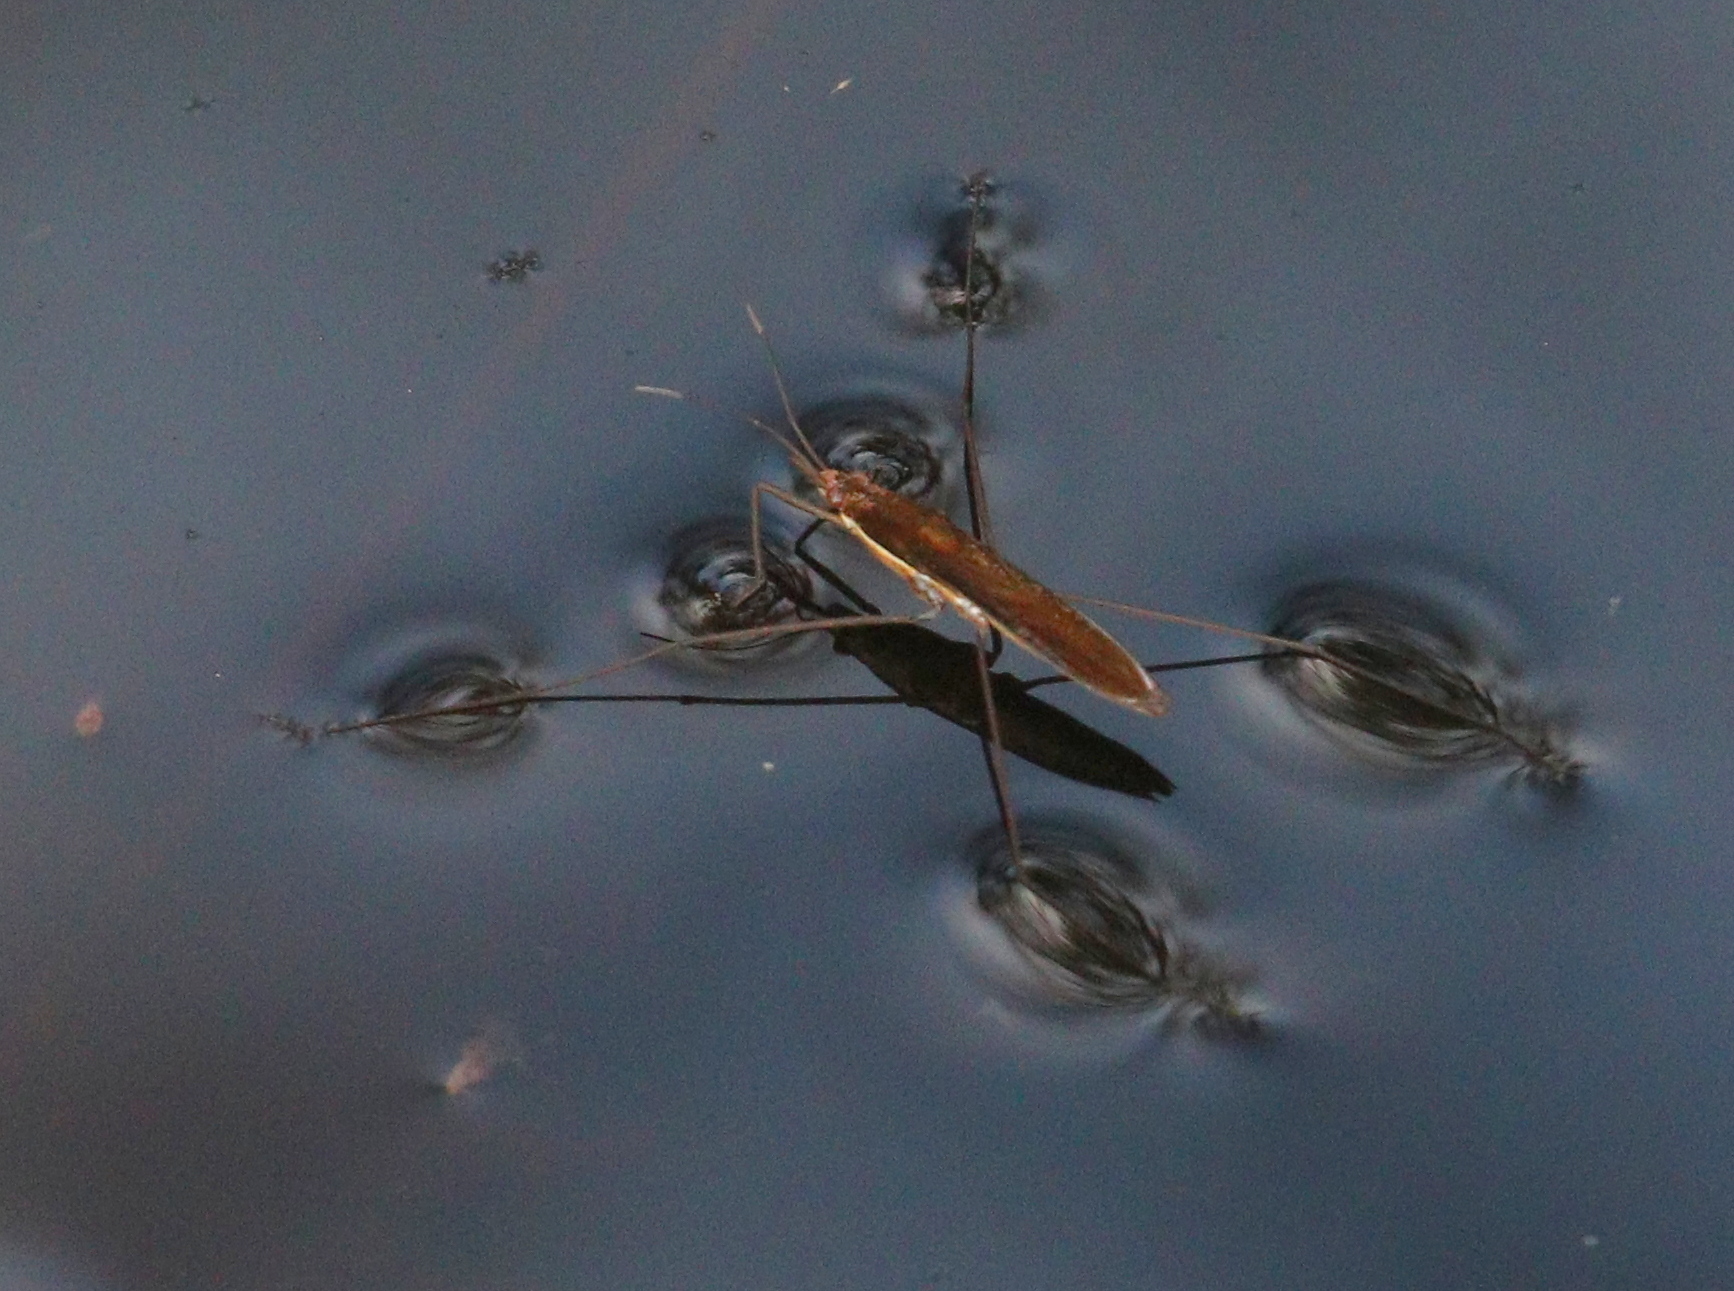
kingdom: Animalia
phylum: Arthropoda
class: Insecta
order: Hemiptera
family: Gerridae
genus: Limnoporus
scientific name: Limnoporus rufoscutellatus
